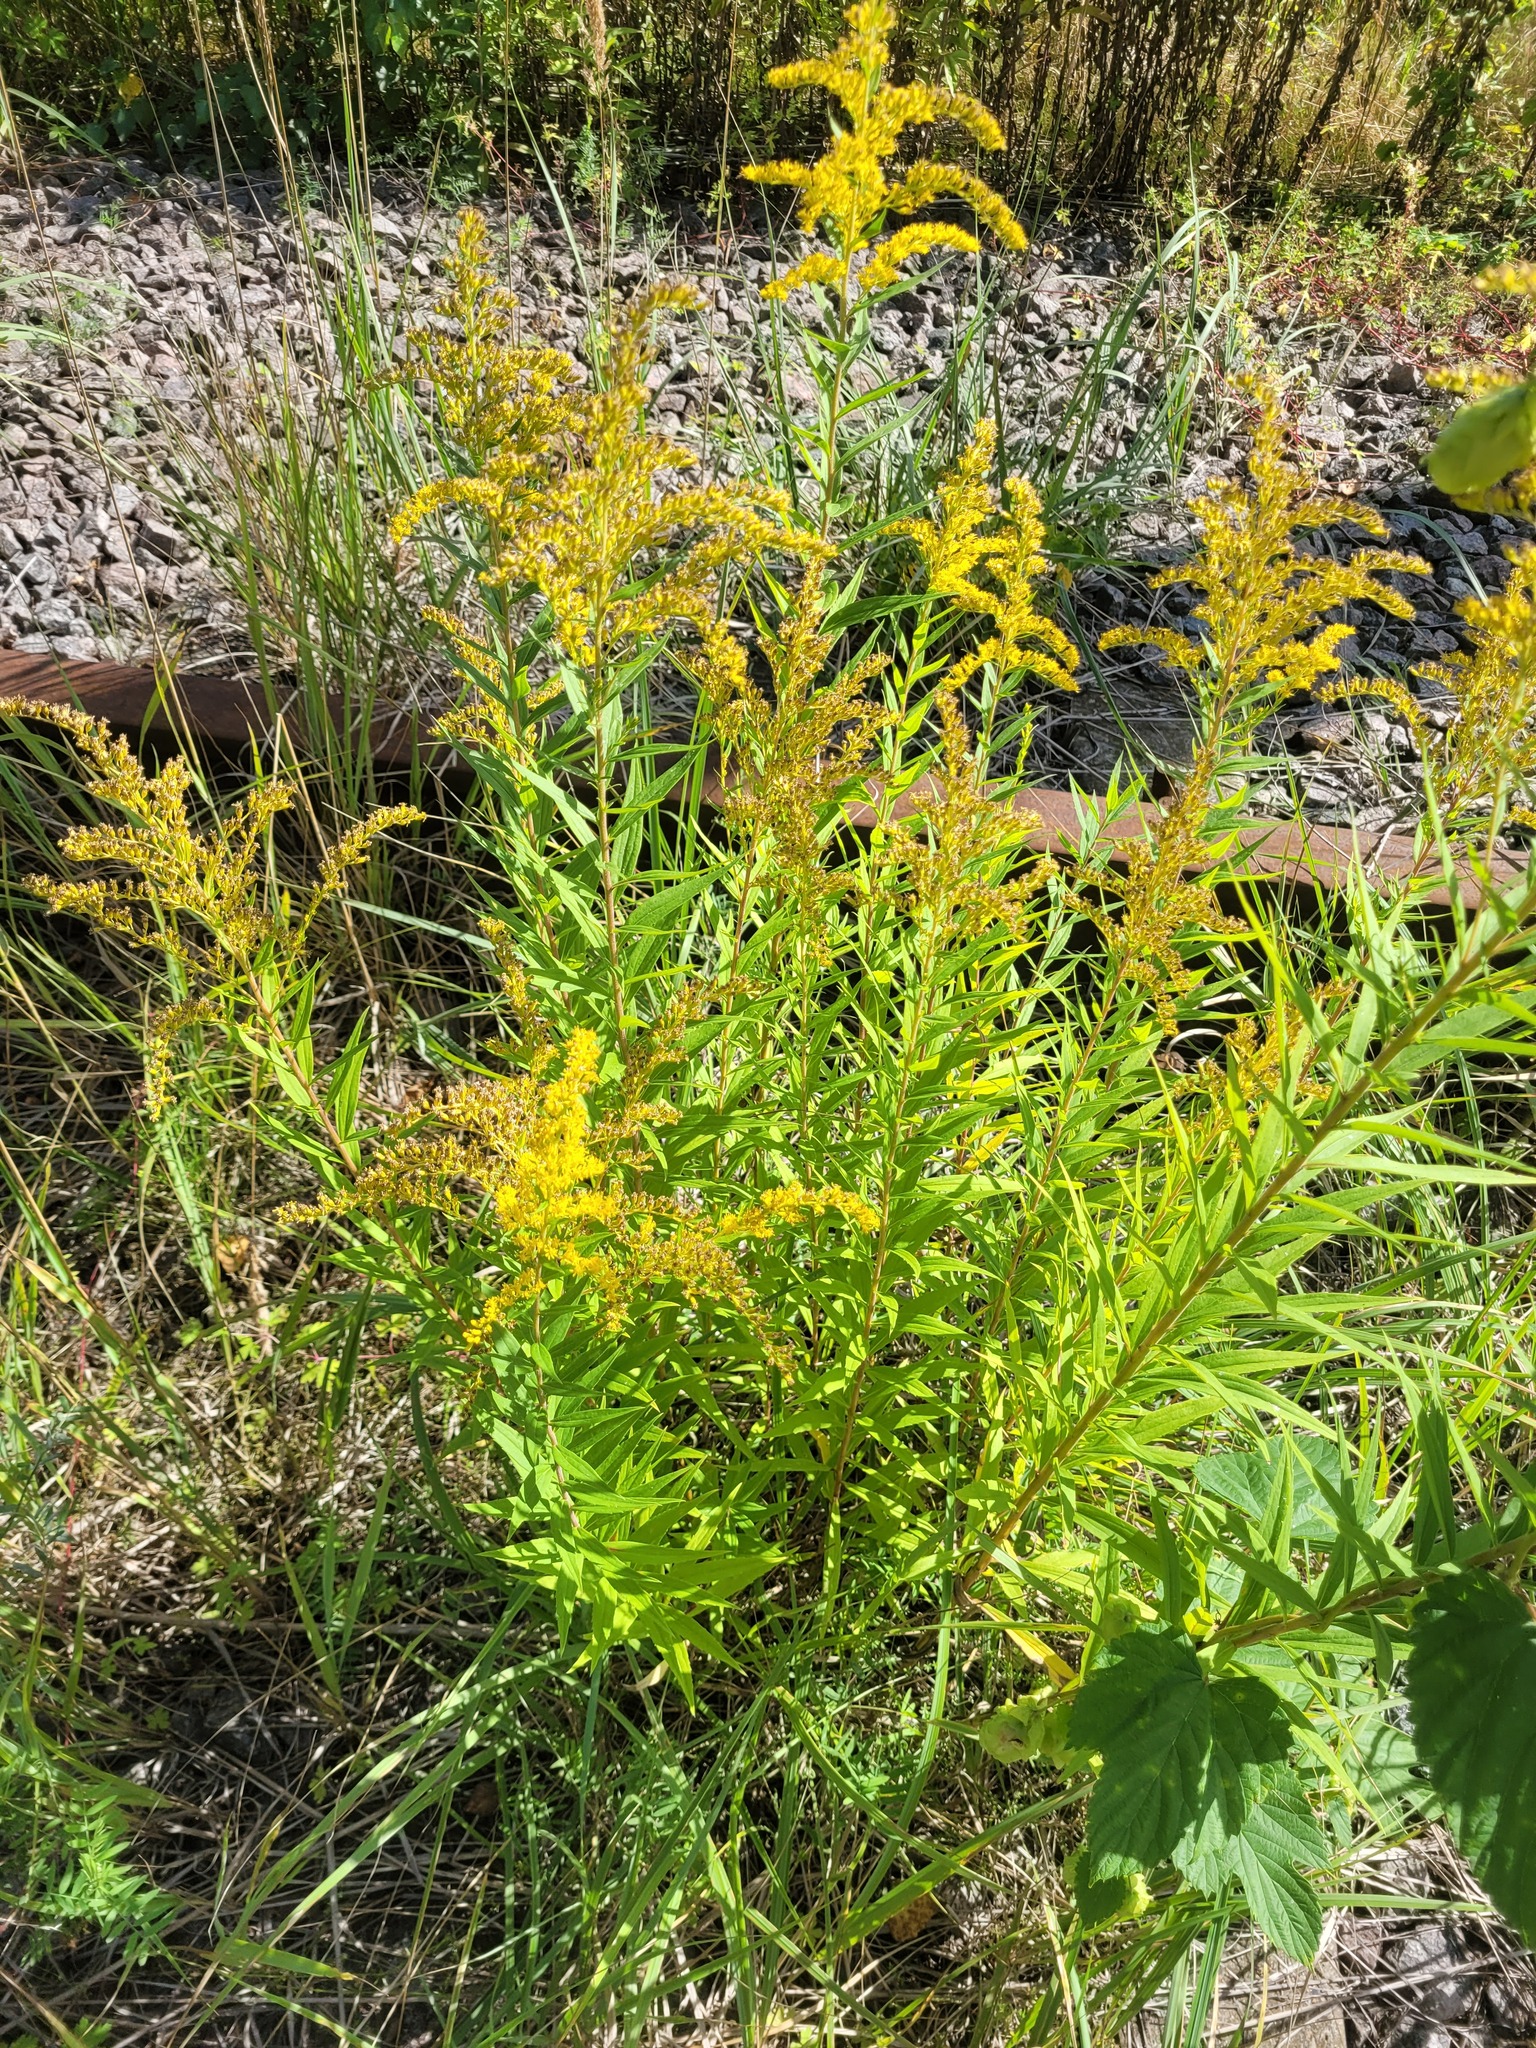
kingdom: Plantae
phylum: Tracheophyta
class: Magnoliopsida
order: Asterales
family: Asteraceae
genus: Solidago
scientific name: Solidago canadensis
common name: Canada goldenrod
